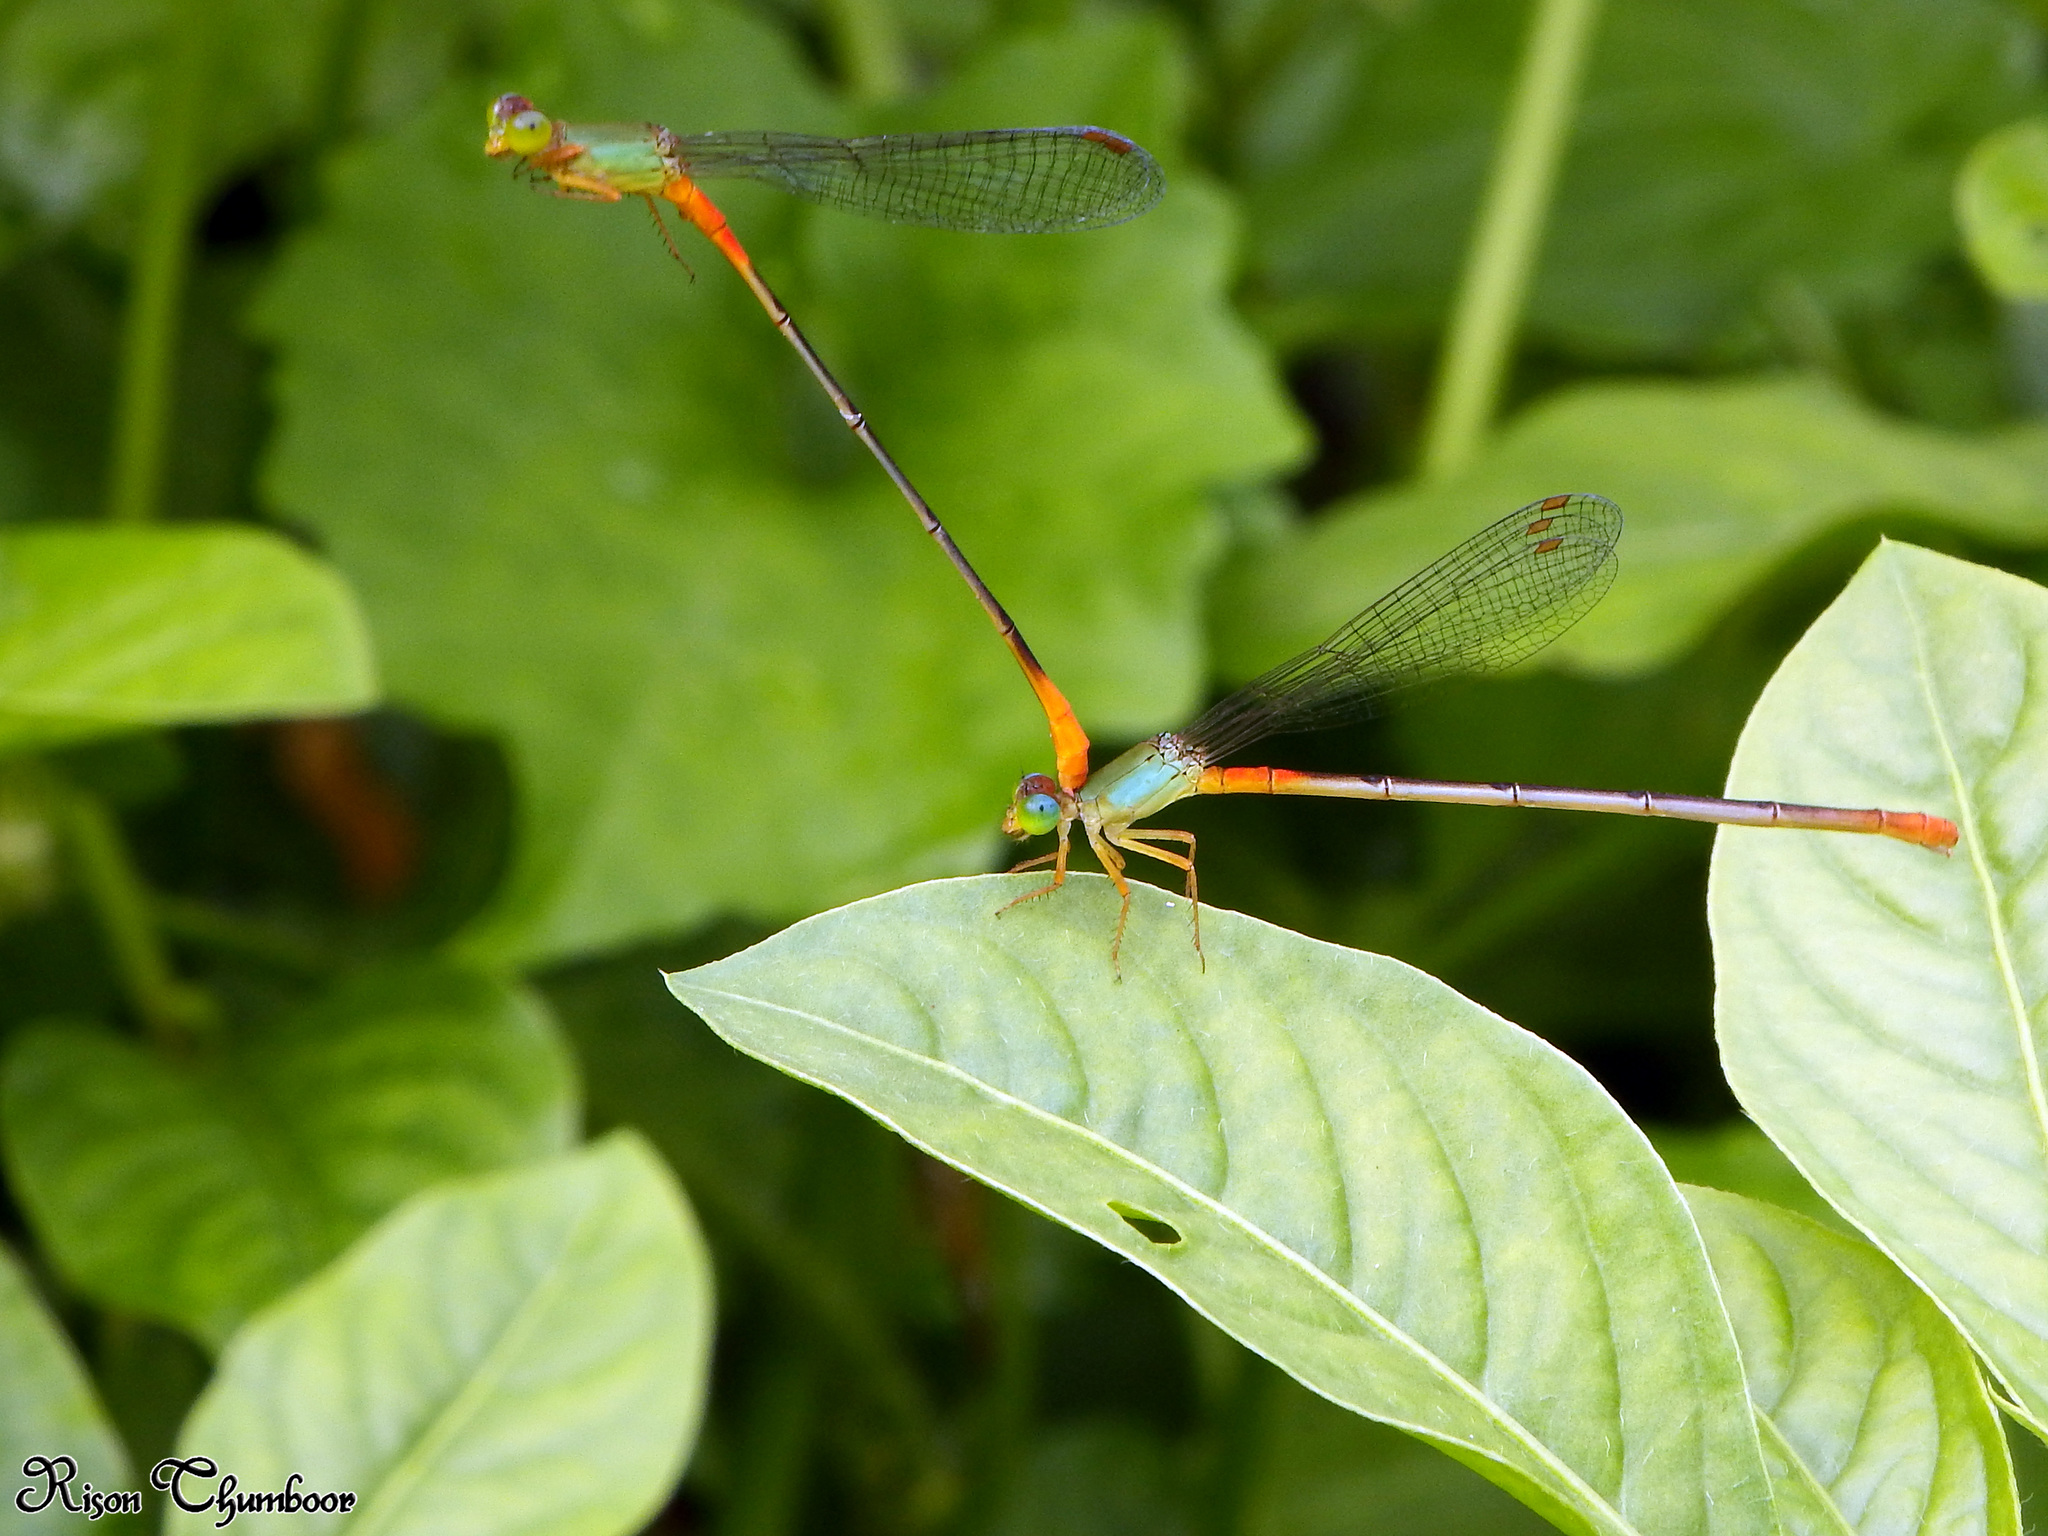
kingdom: Animalia
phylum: Arthropoda
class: Insecta
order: Odonata
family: Coenagrionidae
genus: Ceriagrion
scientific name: Ceriagrion cerinorubellum
